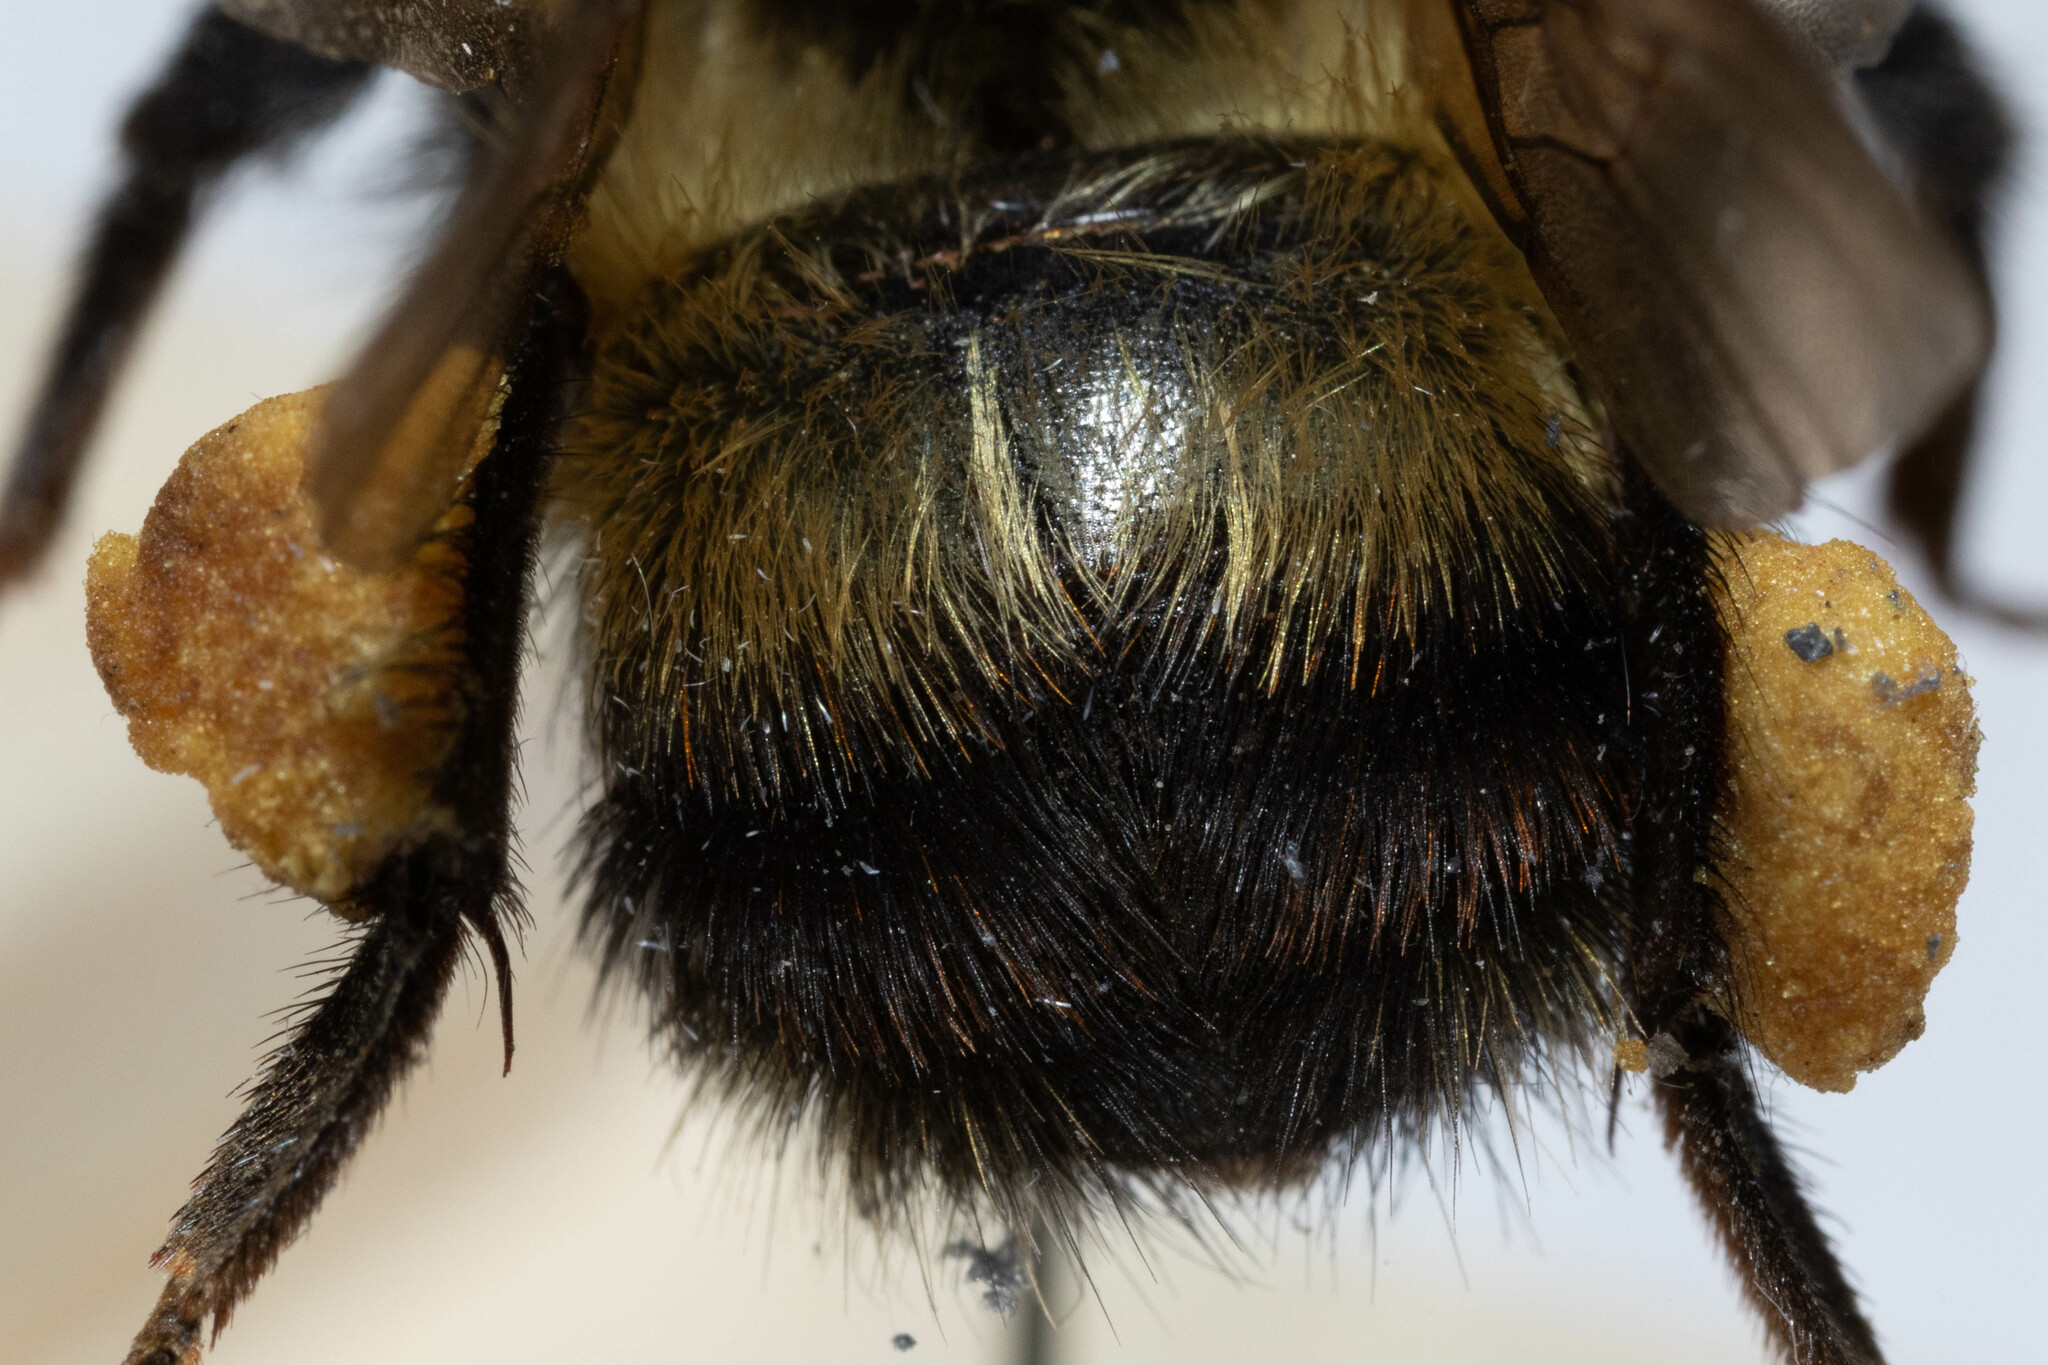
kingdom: Animalia
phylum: Arthropoda
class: Insecta
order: Hymenoptera
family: Apidae
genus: Bombus
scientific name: Bombus rufocinctus
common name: Red-belted bumble bee
